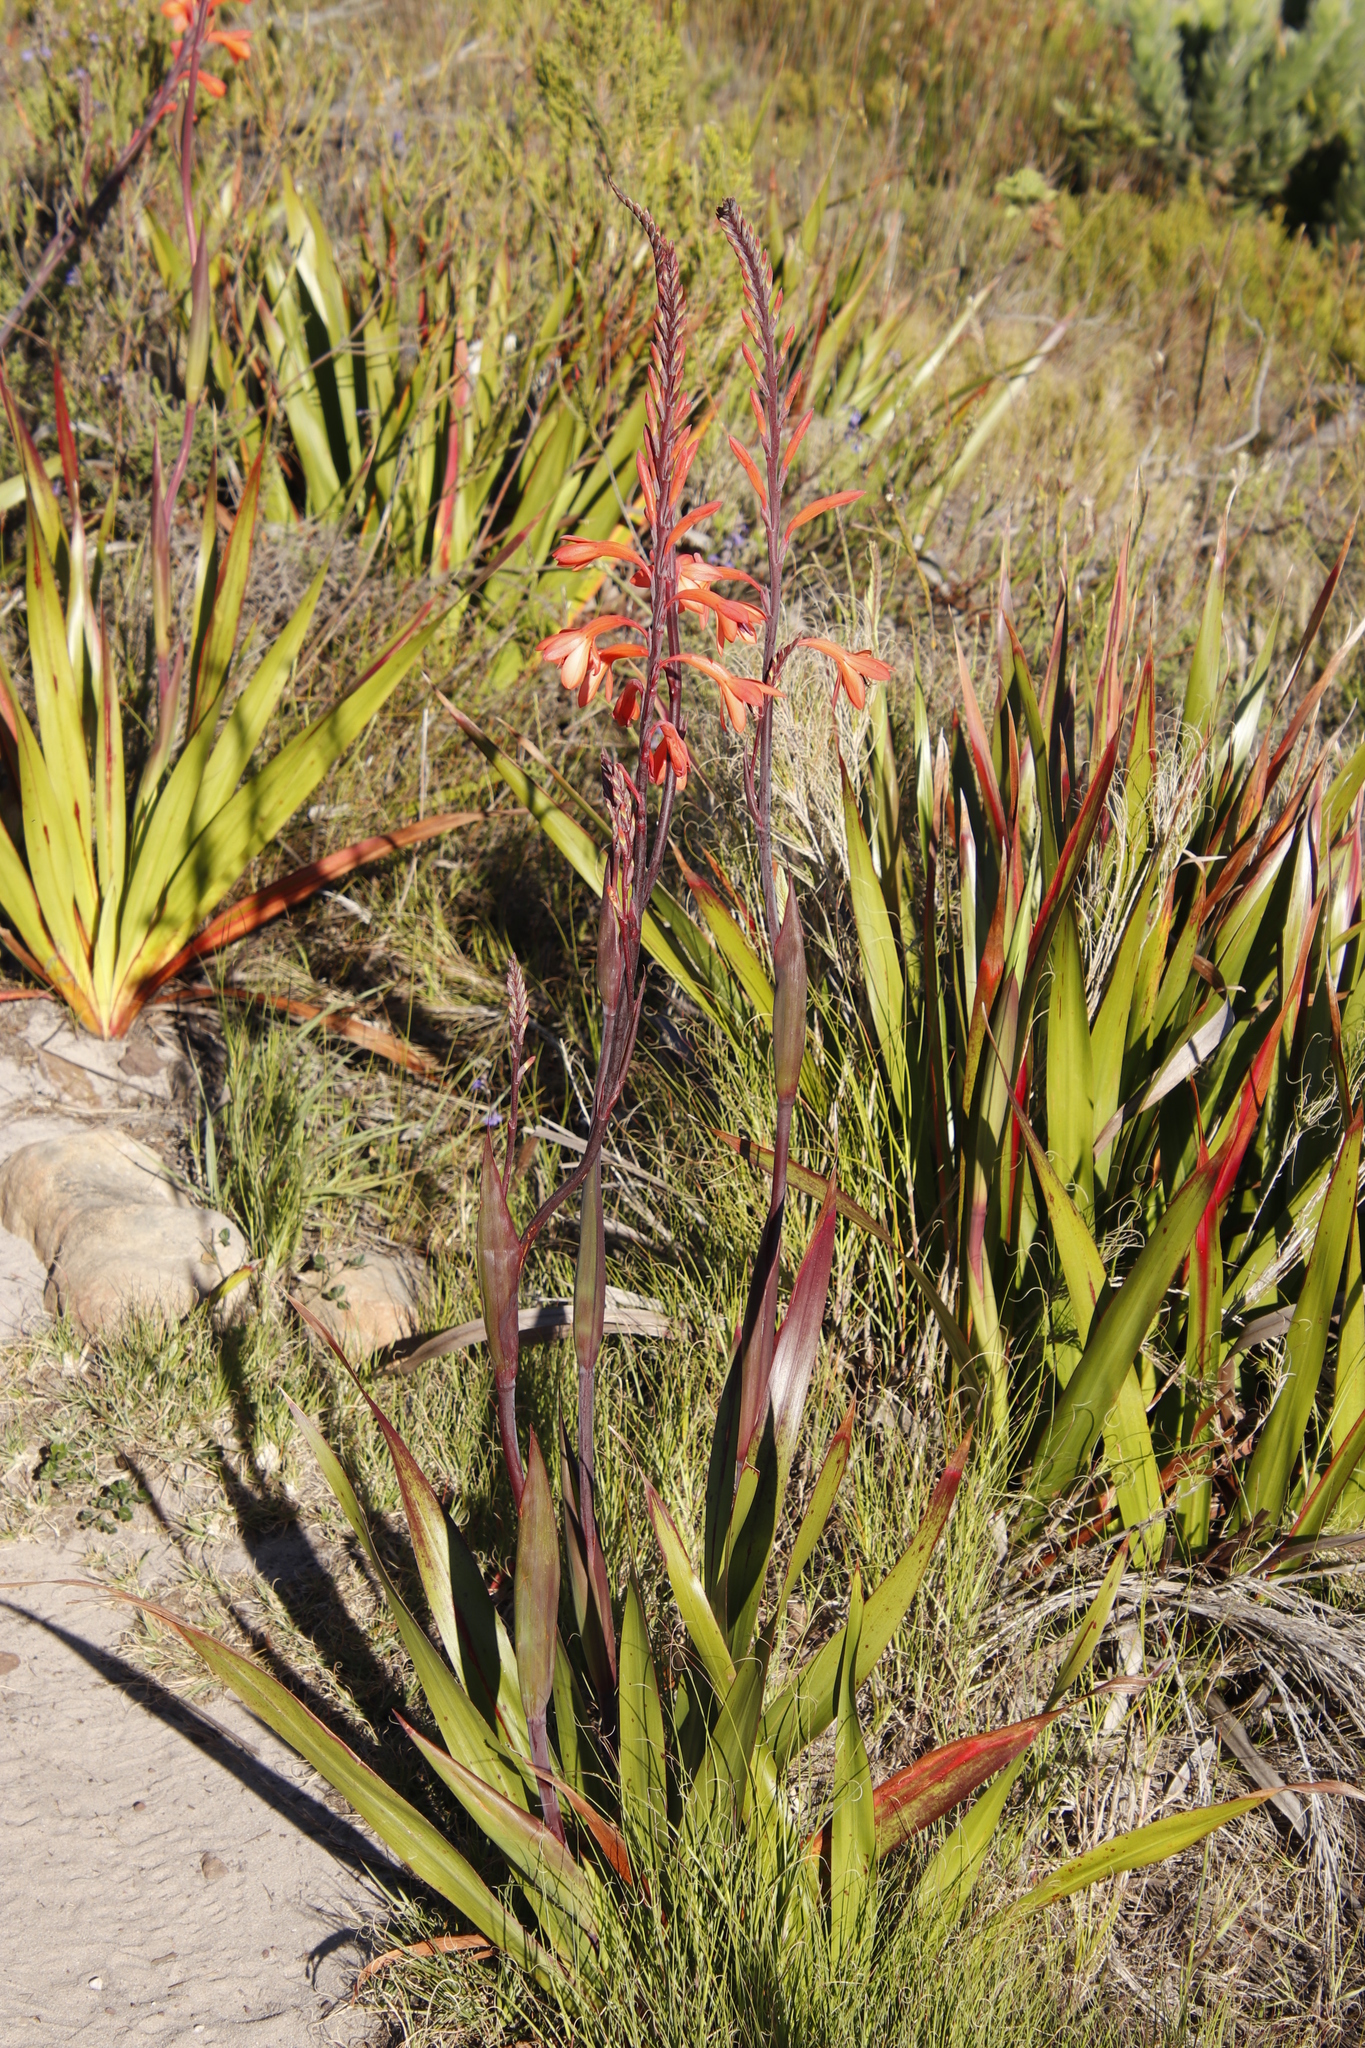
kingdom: Plantae
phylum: Tracheophyta
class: Liliopsida
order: Asparagales
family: Iridaceae
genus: Watsonia
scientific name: Watsonia tabularis
